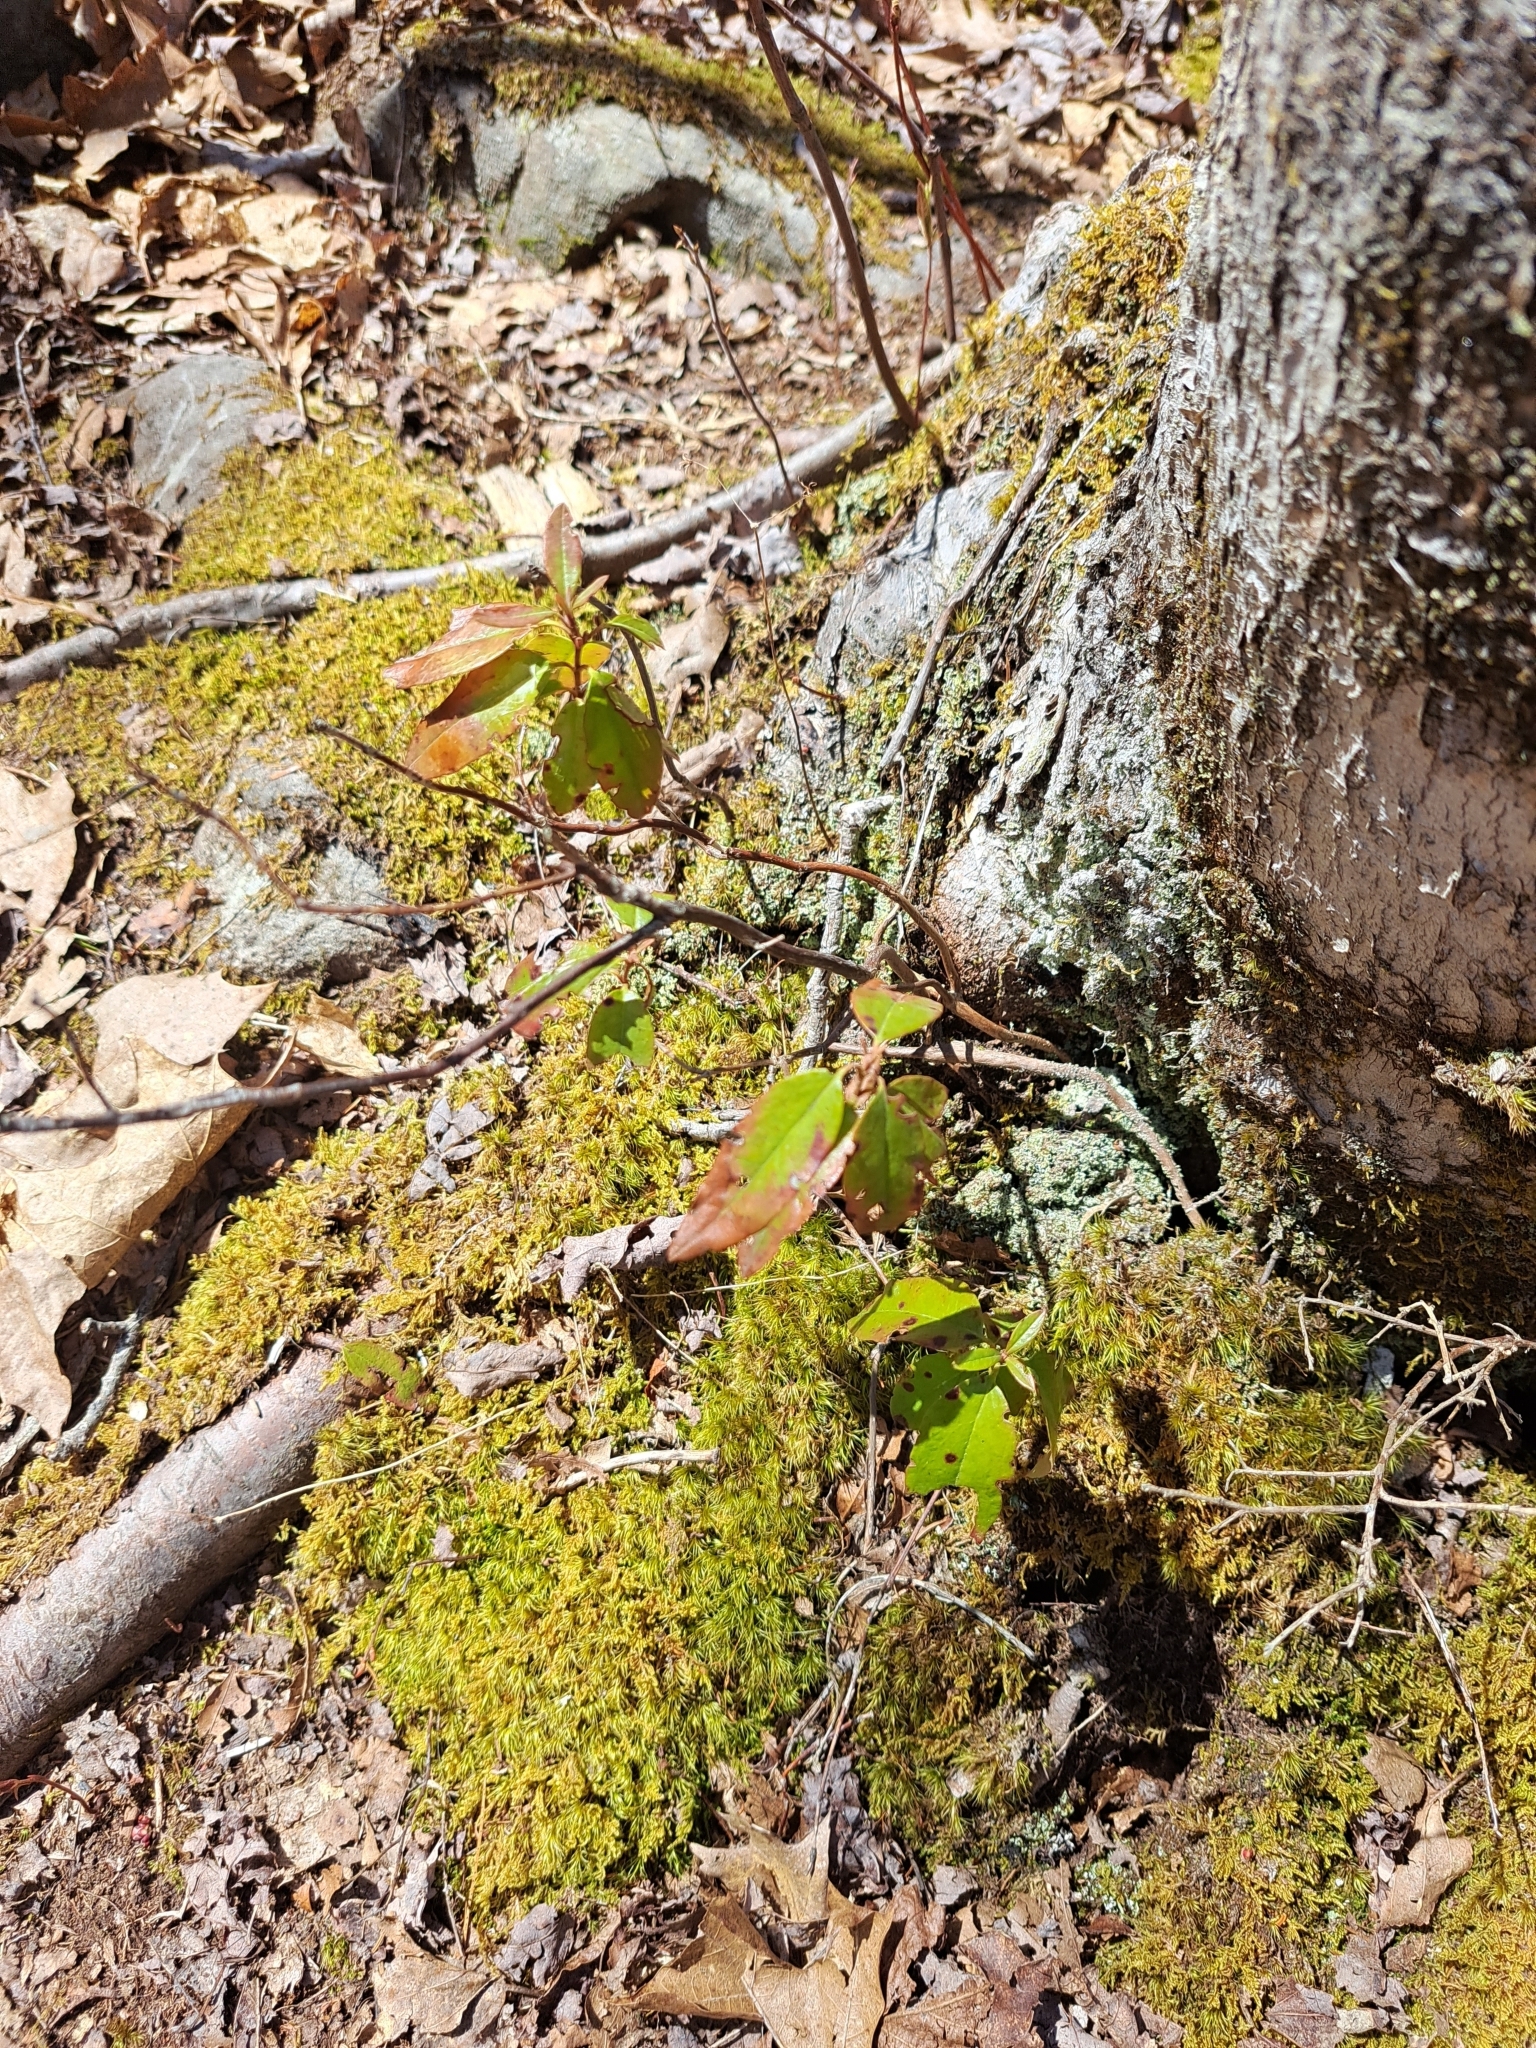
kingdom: Plantae
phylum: Tracheophyta
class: Magnoliopsida
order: Ericales
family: Ericaceae
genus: Kalmia
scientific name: Kalmia angustifolia
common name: Sheep-laurel
